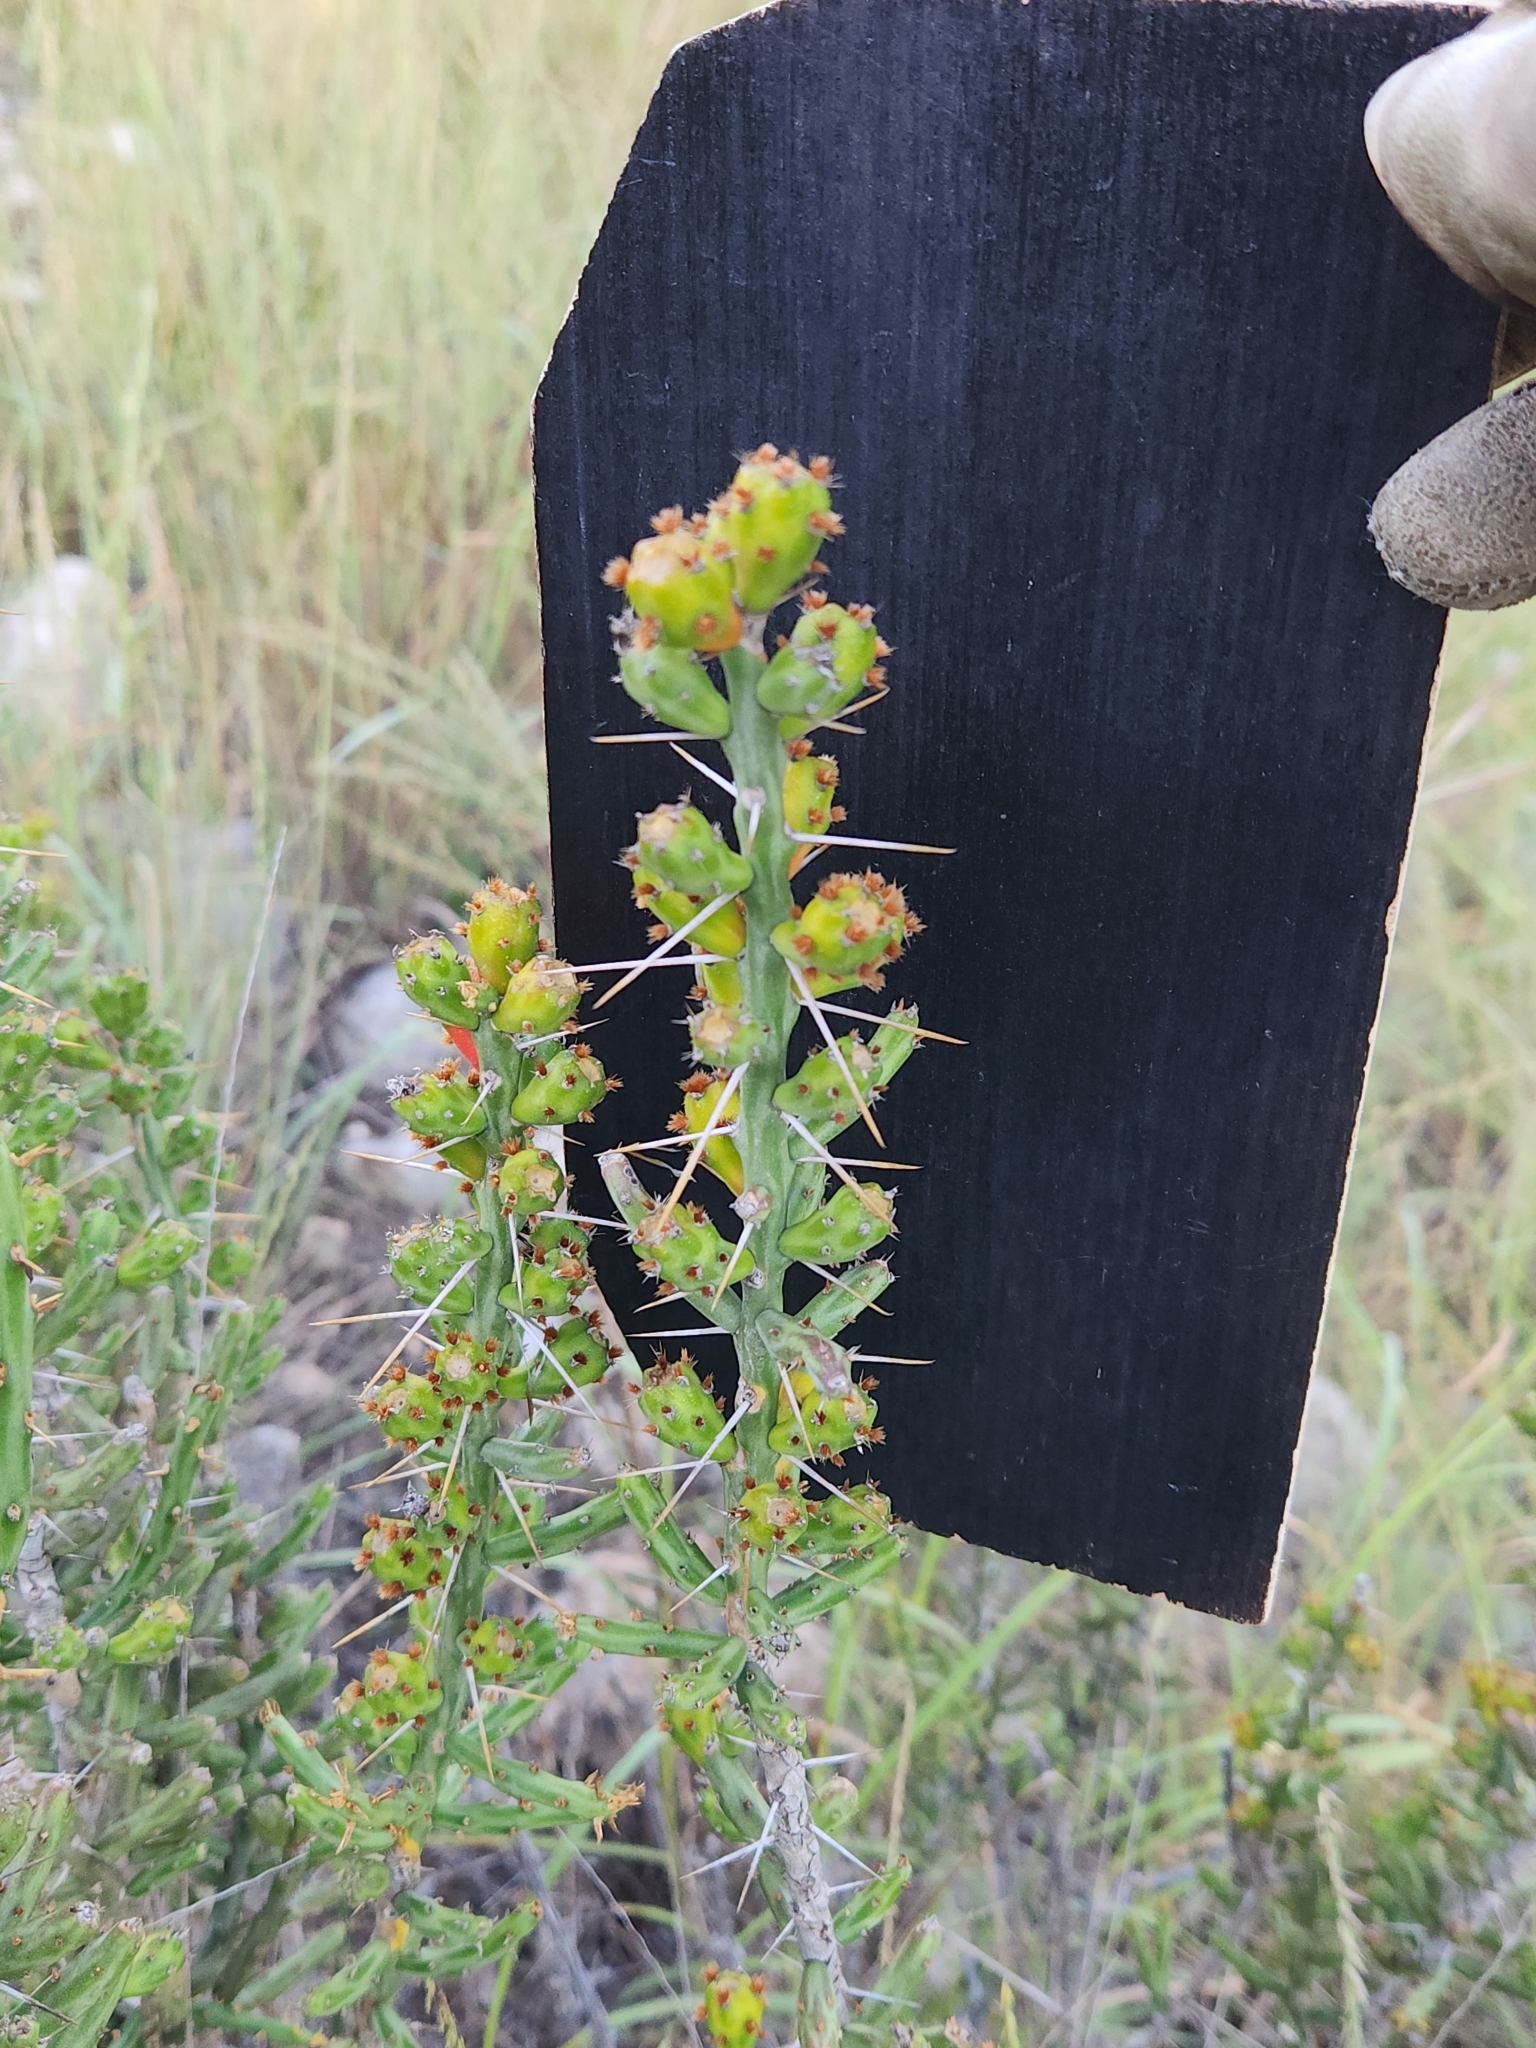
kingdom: Plantae
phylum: Tracheophyta
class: Magnoliopsida
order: Caryophyllales
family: Cactaceae
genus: Cylindropuntia
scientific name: Cylindropuntia leptocaulis
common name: Christmas cactus
